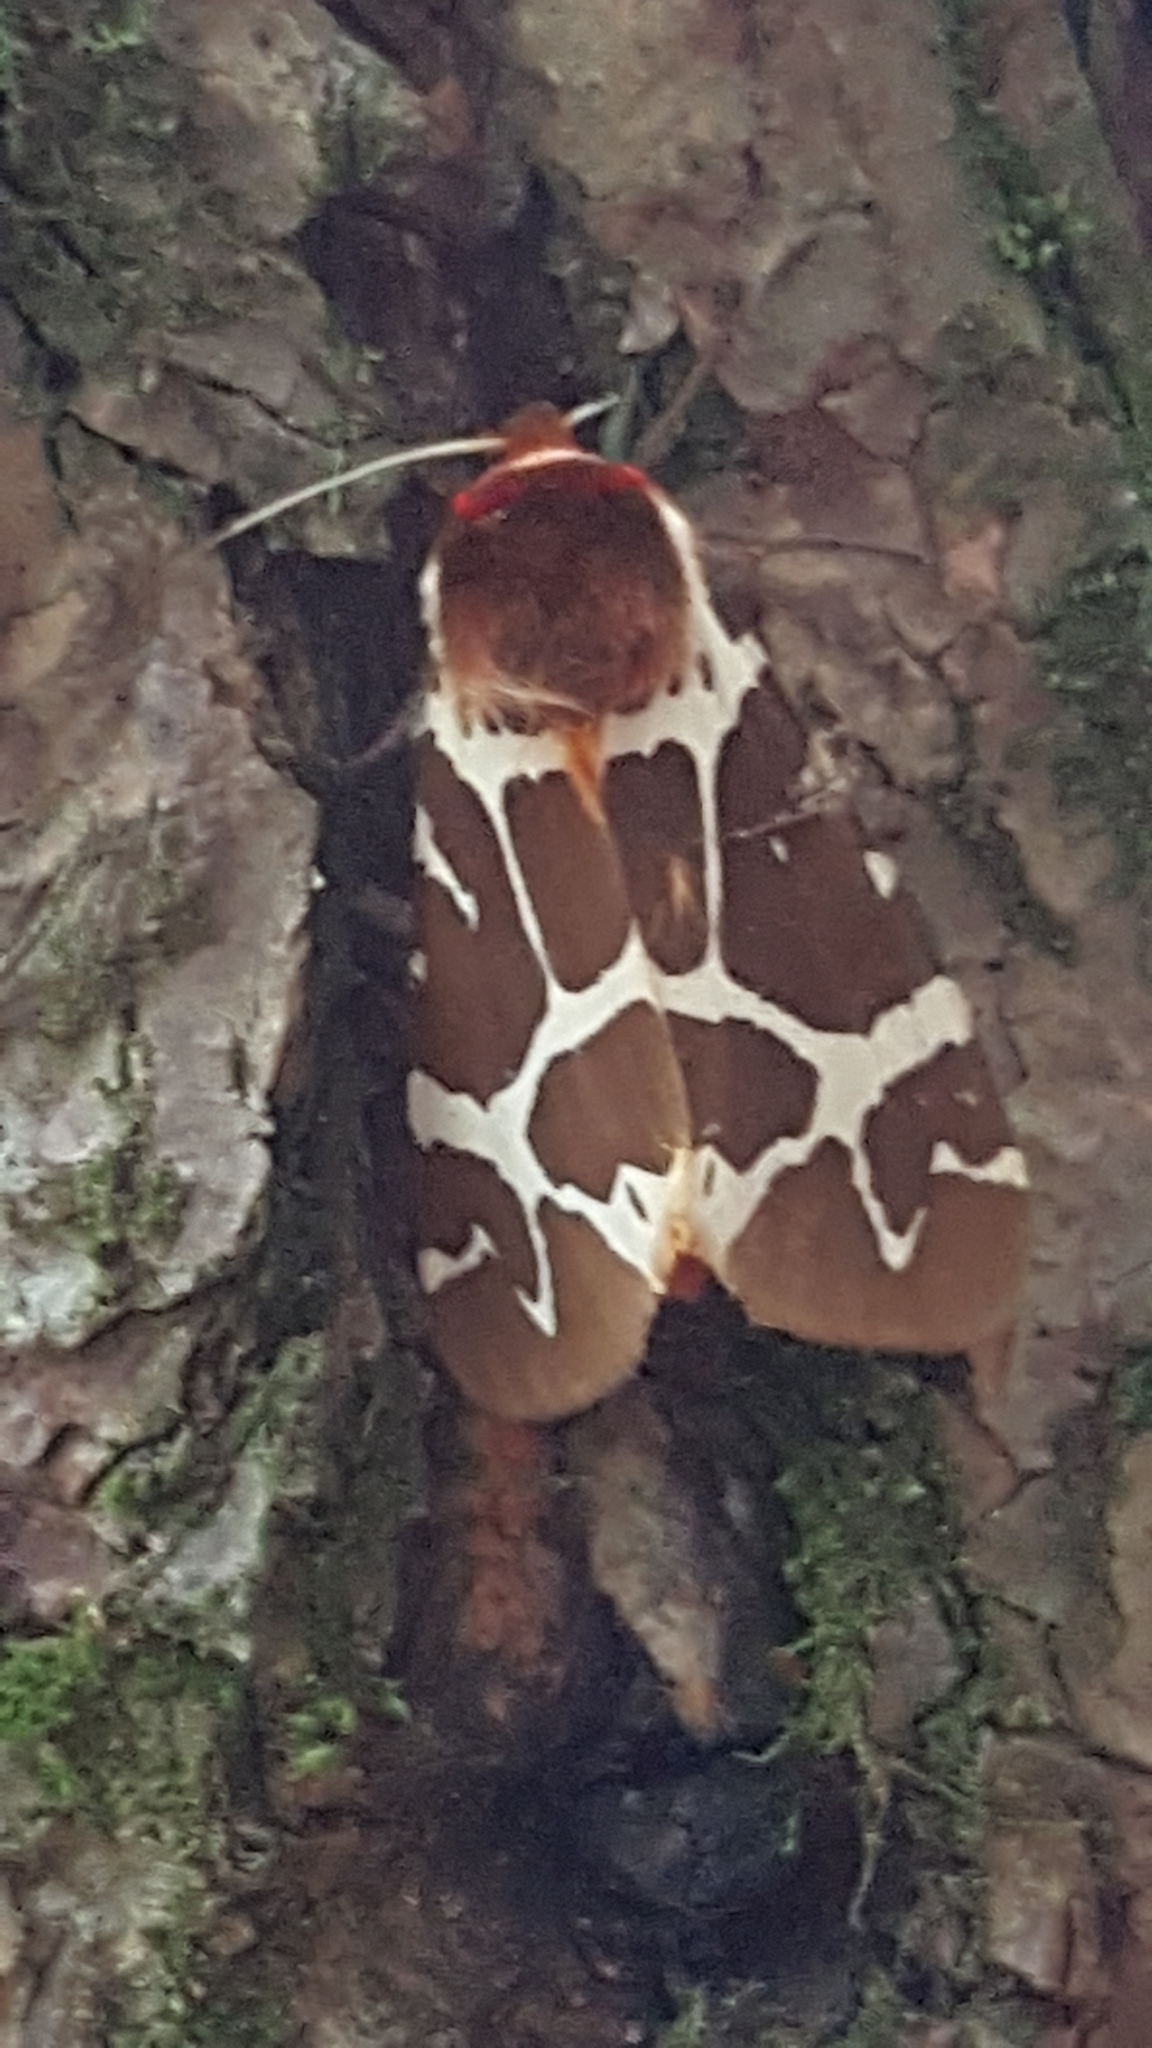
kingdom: Animalia
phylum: Arthropoda
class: Insecta
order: Lepidoptera
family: Erebidae
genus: Arctia
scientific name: Arctia caja
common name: Garden tiger
